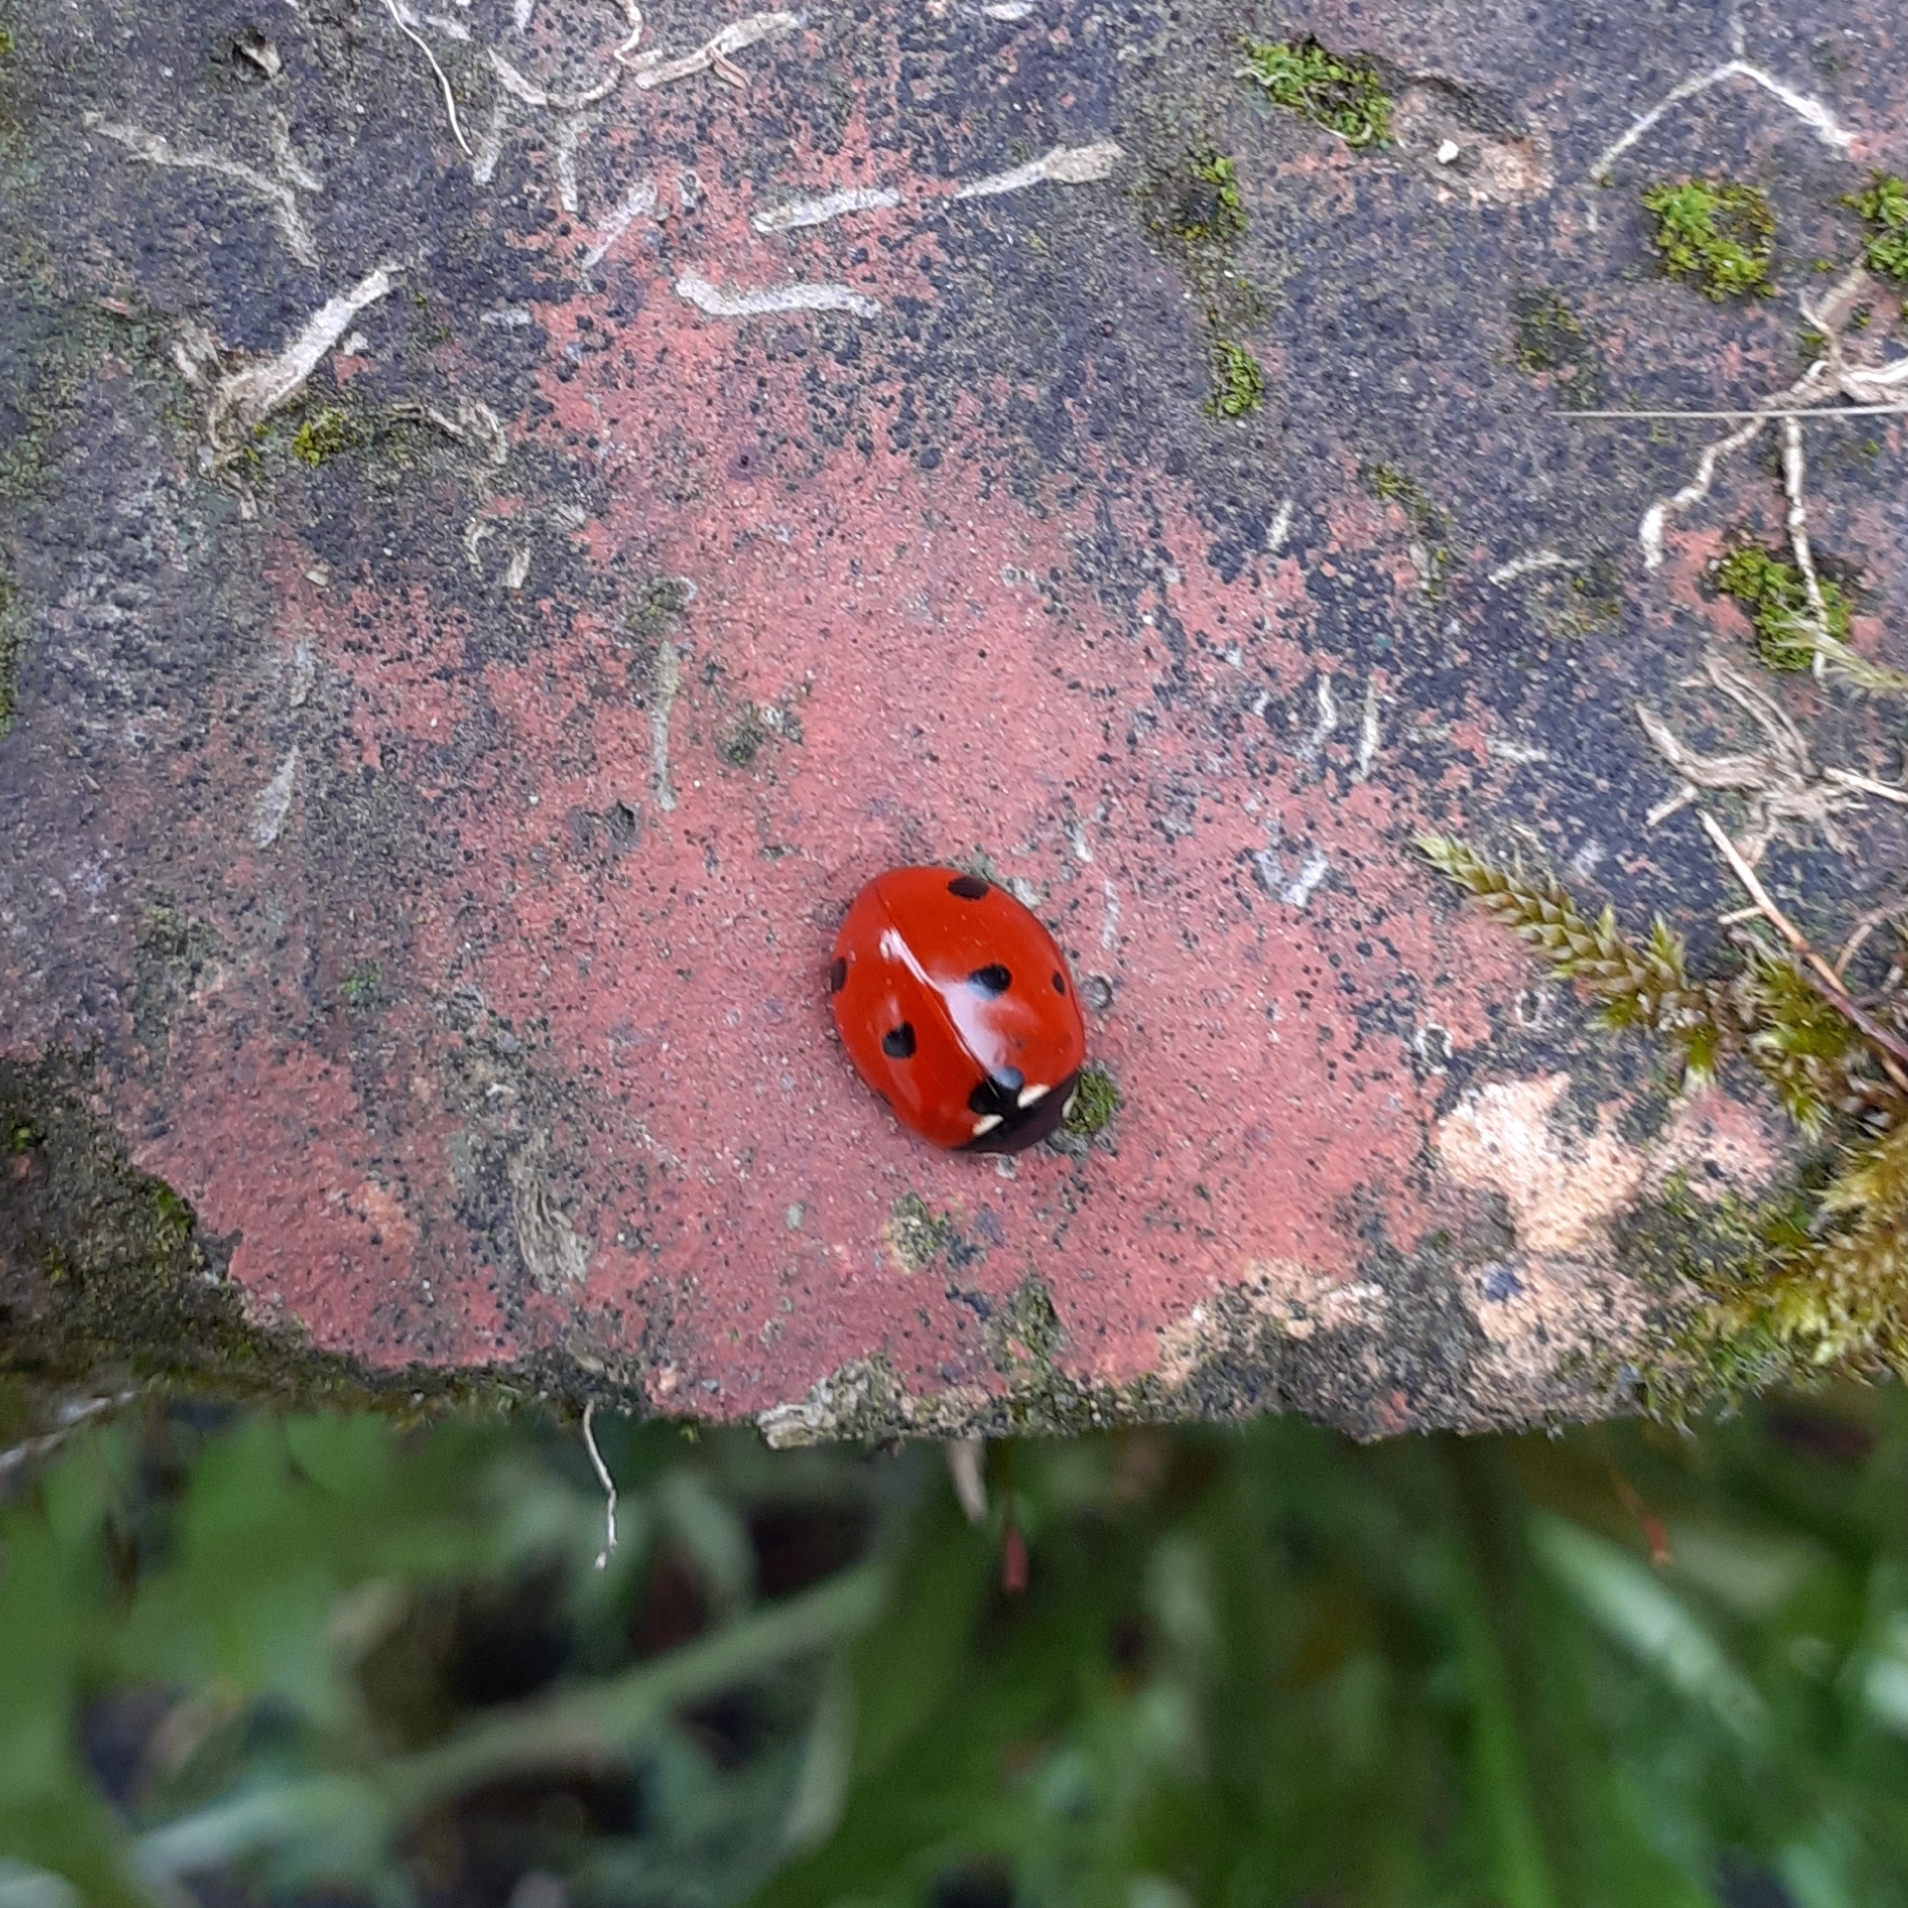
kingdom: Animalia
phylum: Arthropoda
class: Insecta
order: Coleoptera
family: Coccinellidae
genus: Coccinella
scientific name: Coccinella septempunctata
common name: Sevenspotted lady beetle
